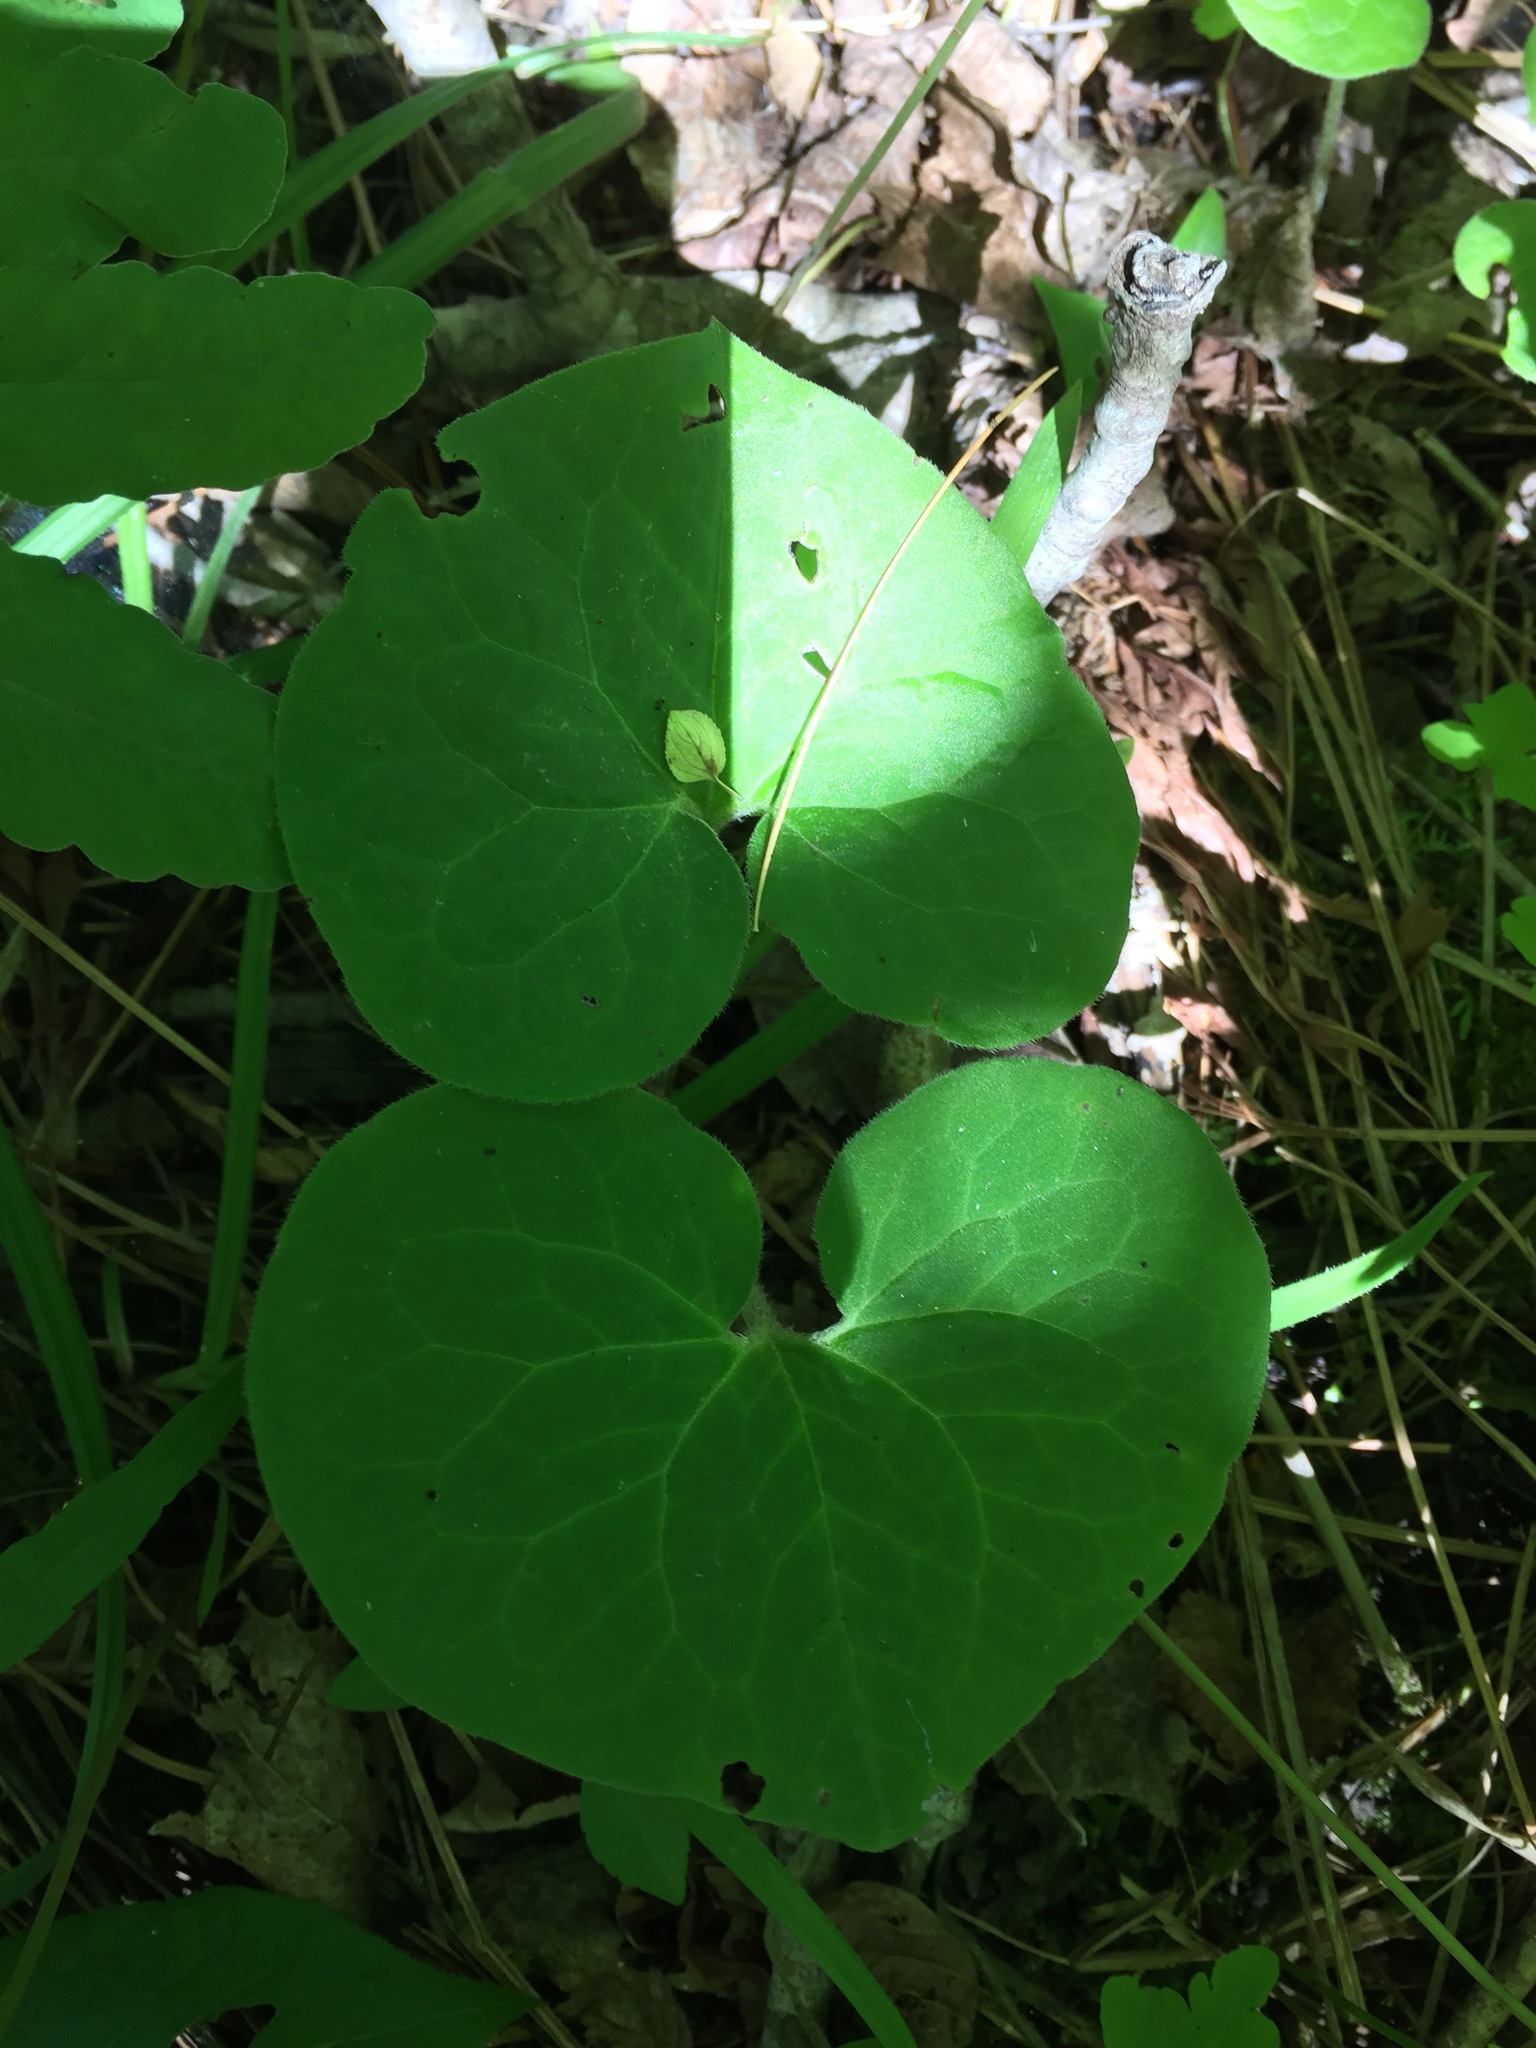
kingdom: Plantae
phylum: Tracheophyta
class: Magnoliopsida
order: Piperales
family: Aristolochiaceae
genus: Asarum
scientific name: Asarum canadense
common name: Wild ginger
